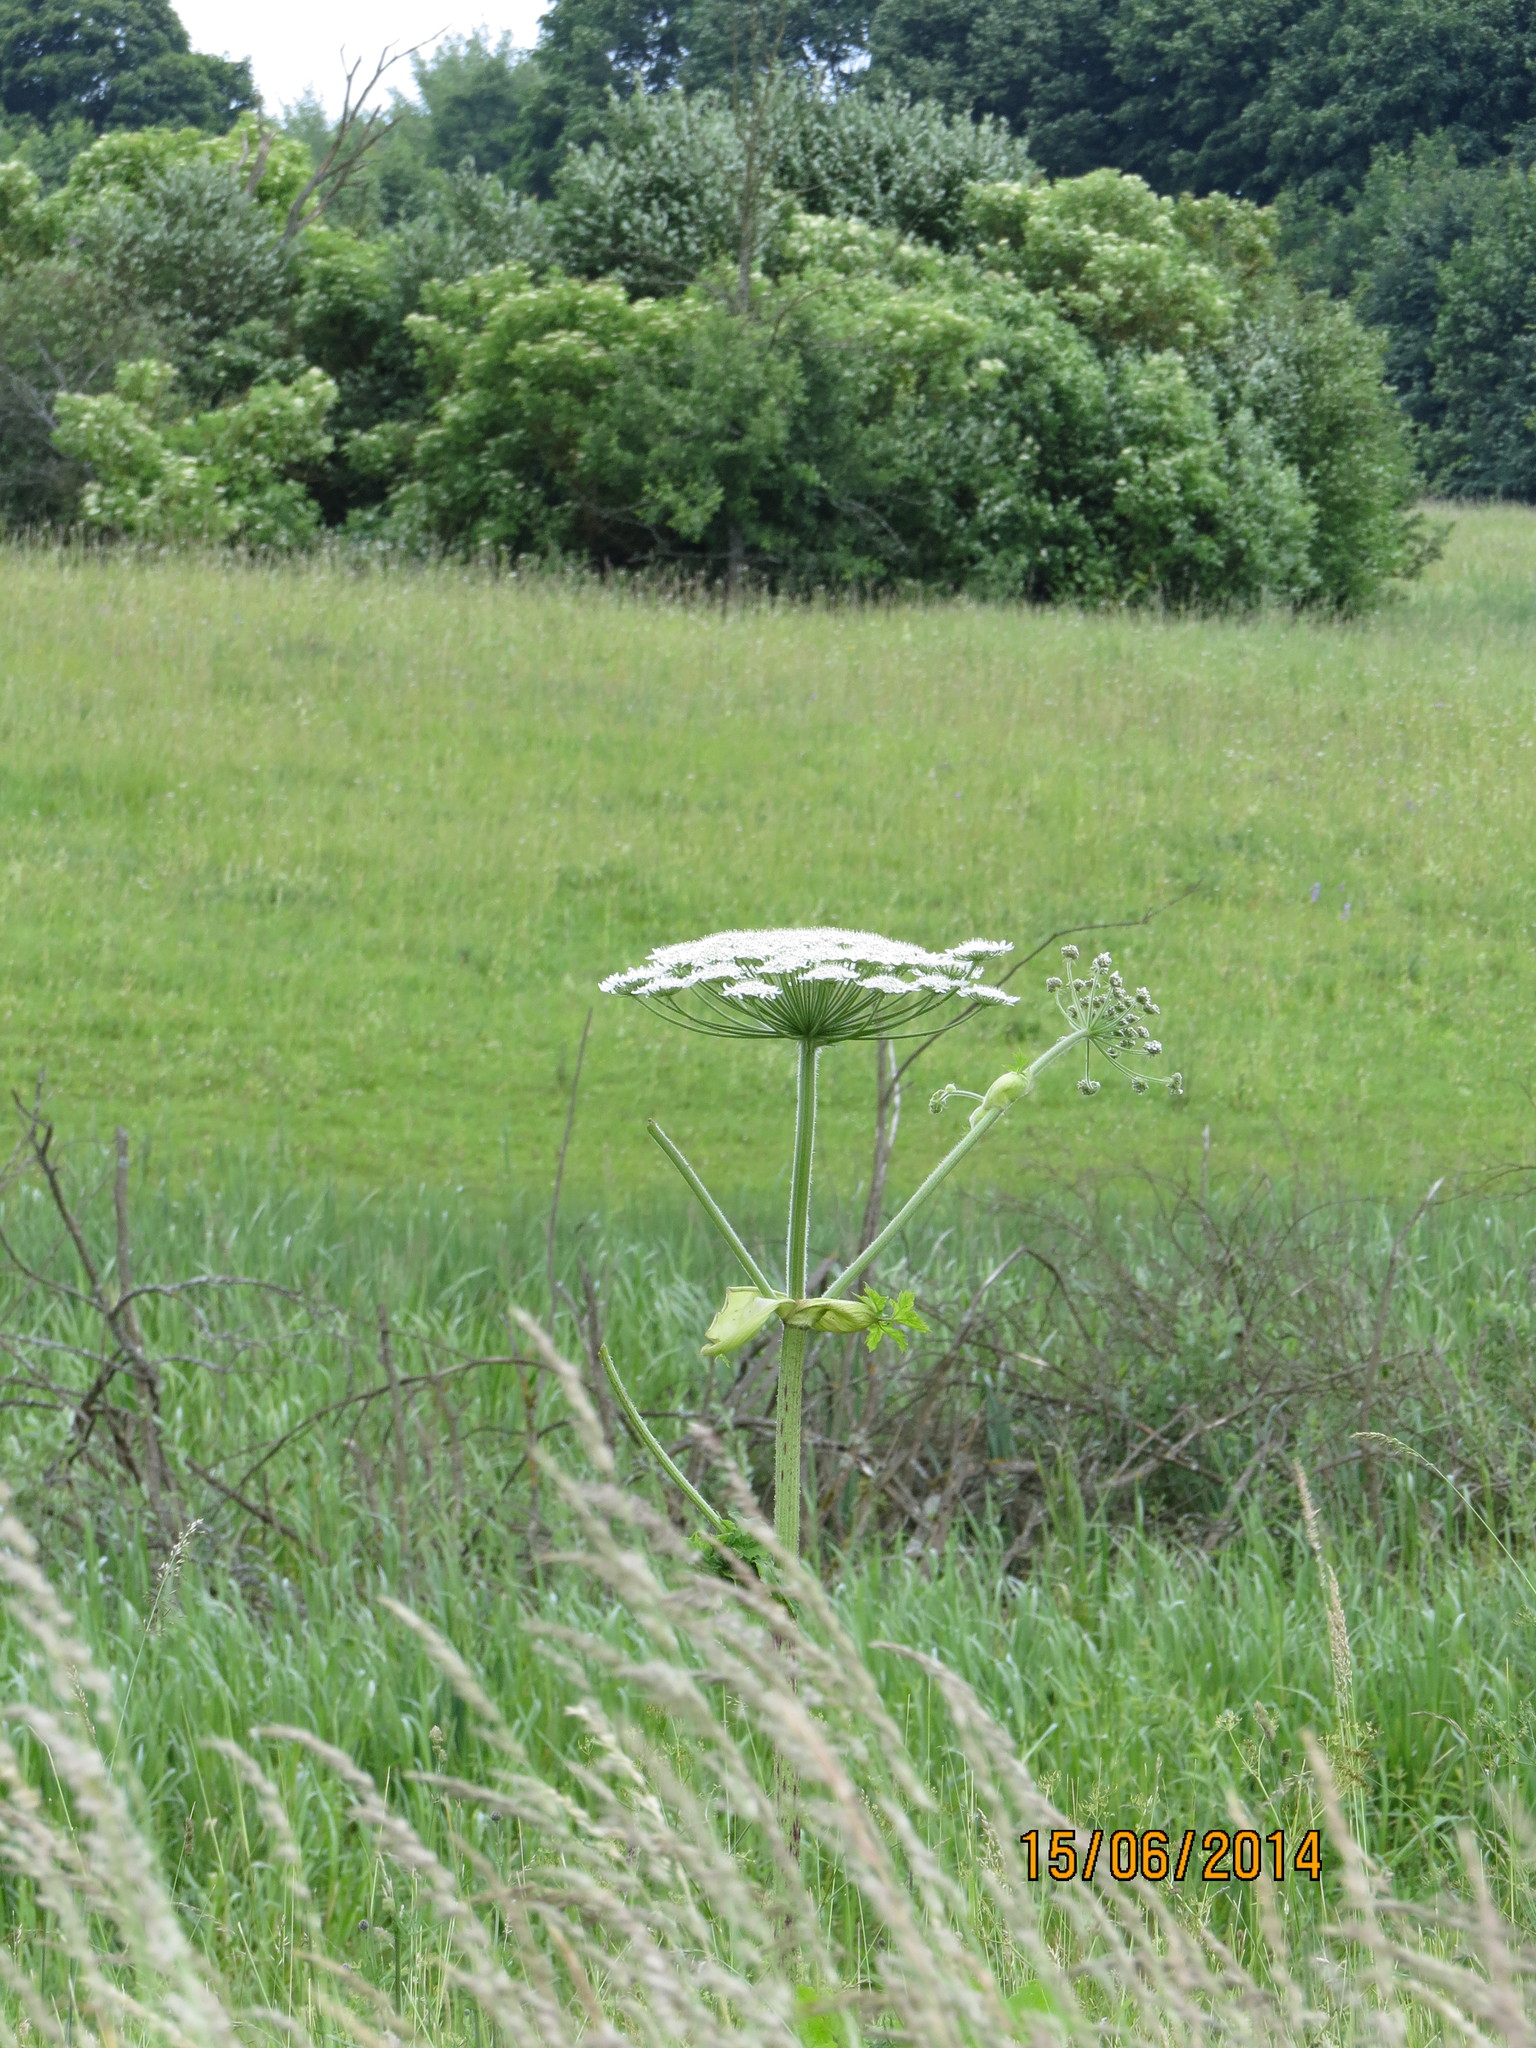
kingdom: Plantae
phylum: Tracheophyta
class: Magnoliopsida
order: Apiales
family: Apiaceae
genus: Heracleum
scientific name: Heracleum sosnowskyi
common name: Sosnowsky's hogweed
